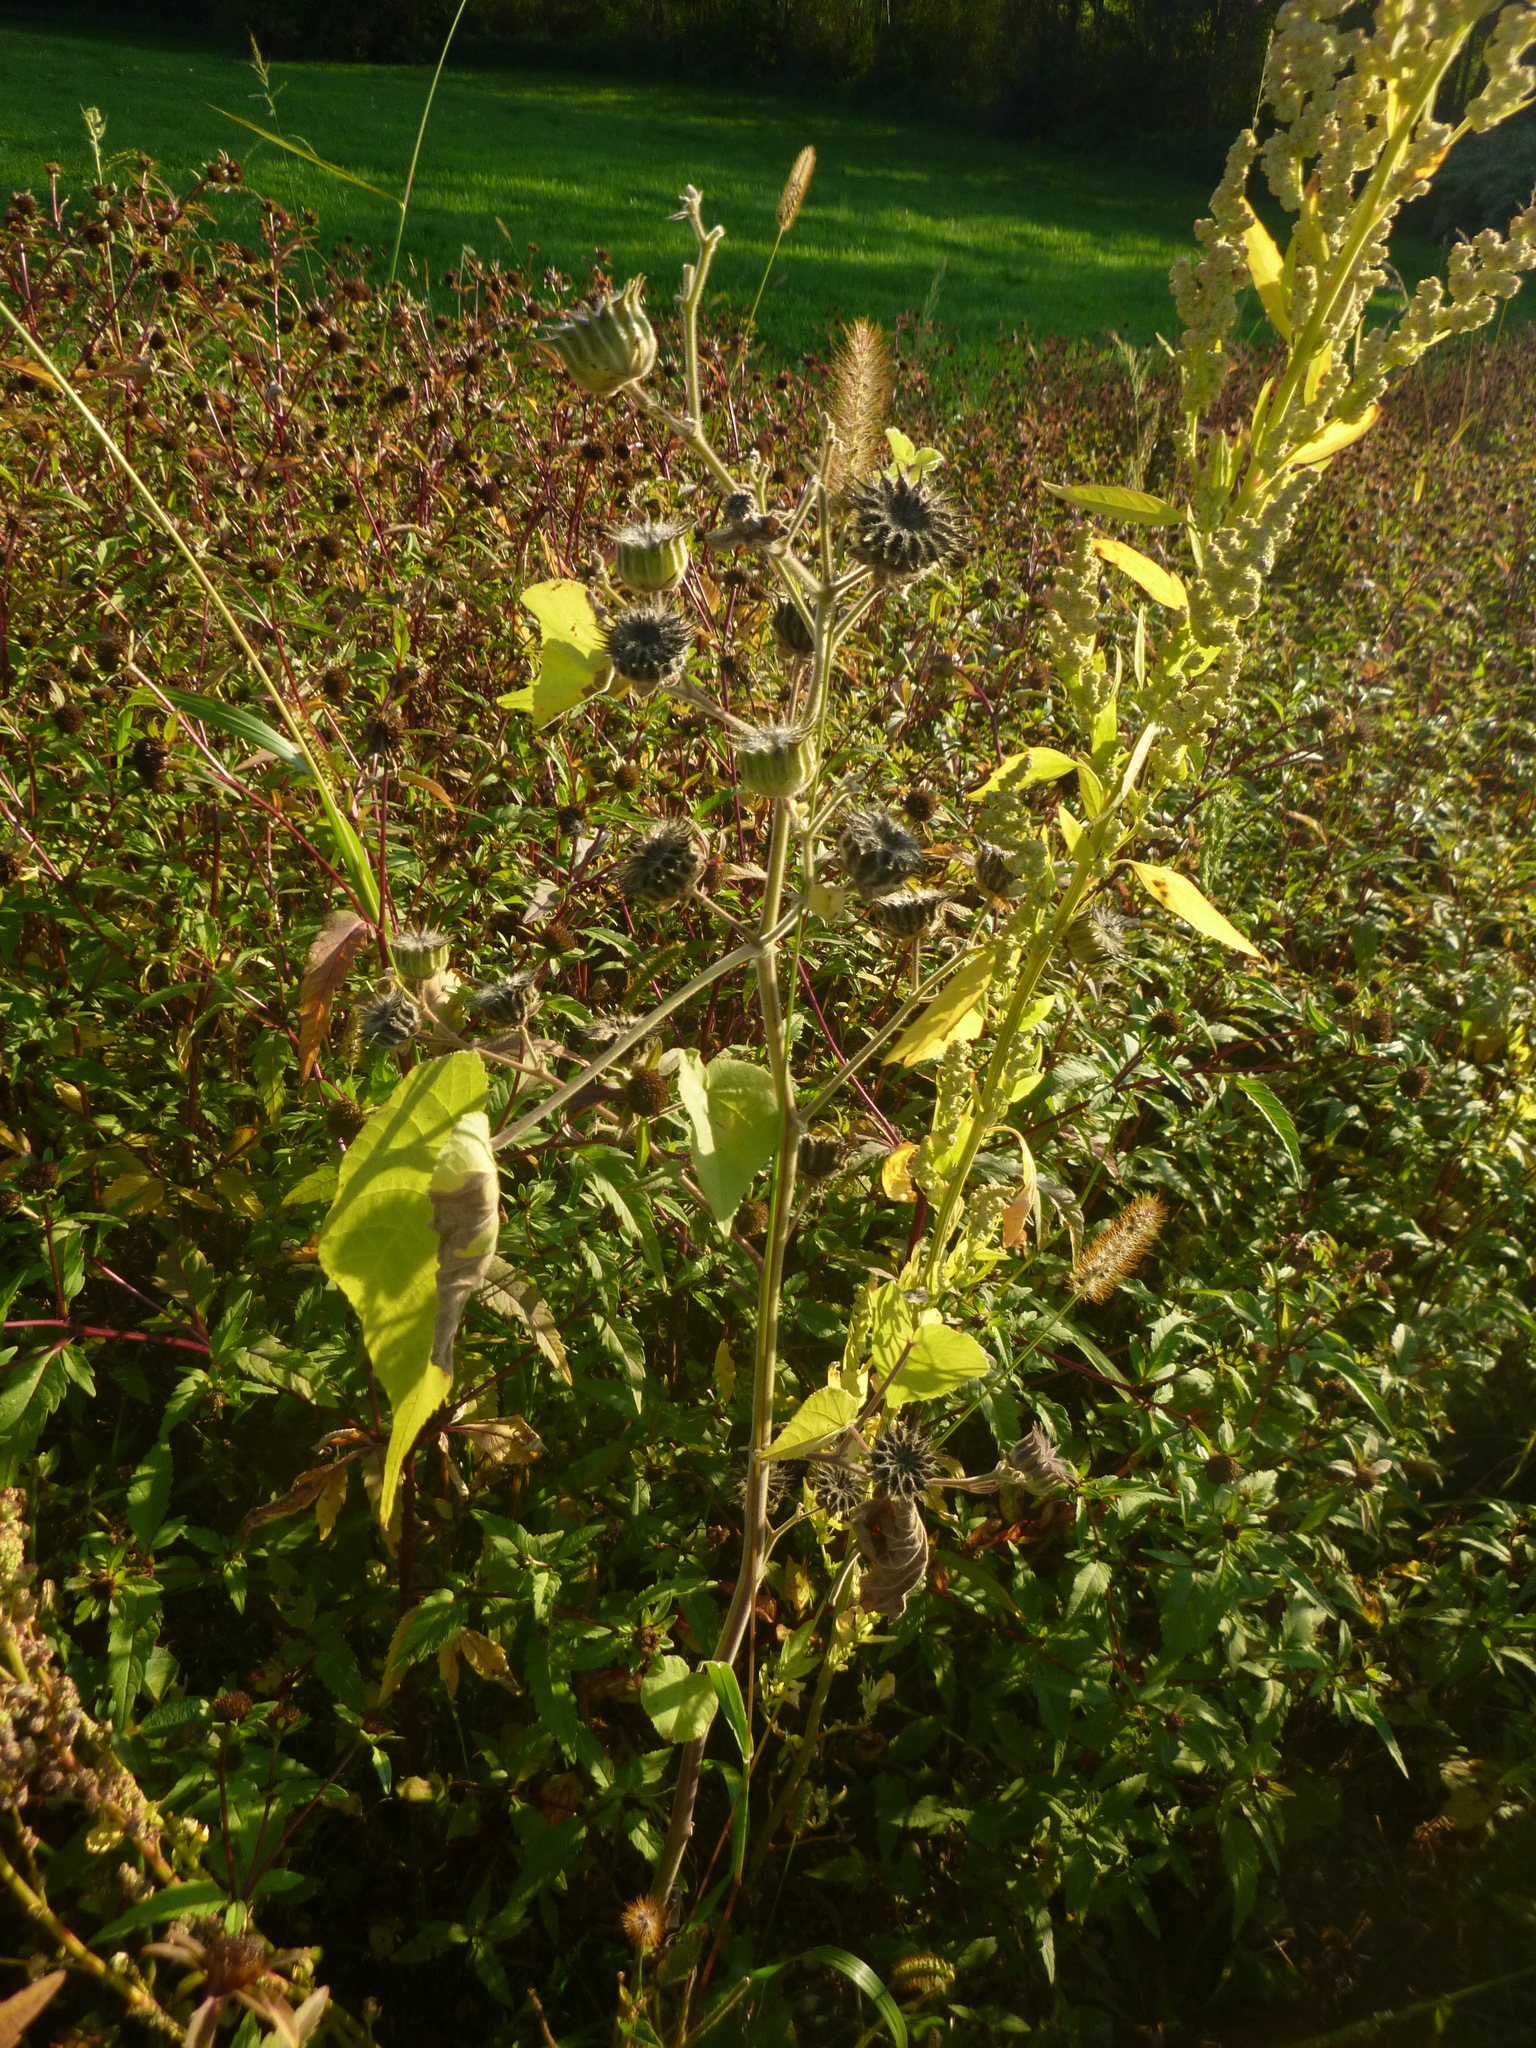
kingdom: Plantae
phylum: Tracheophyta
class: Magnoliopsida
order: Malvales
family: Malvaceae
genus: Abutilon
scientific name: Abutilon theophrasti
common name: Velvetleaf
